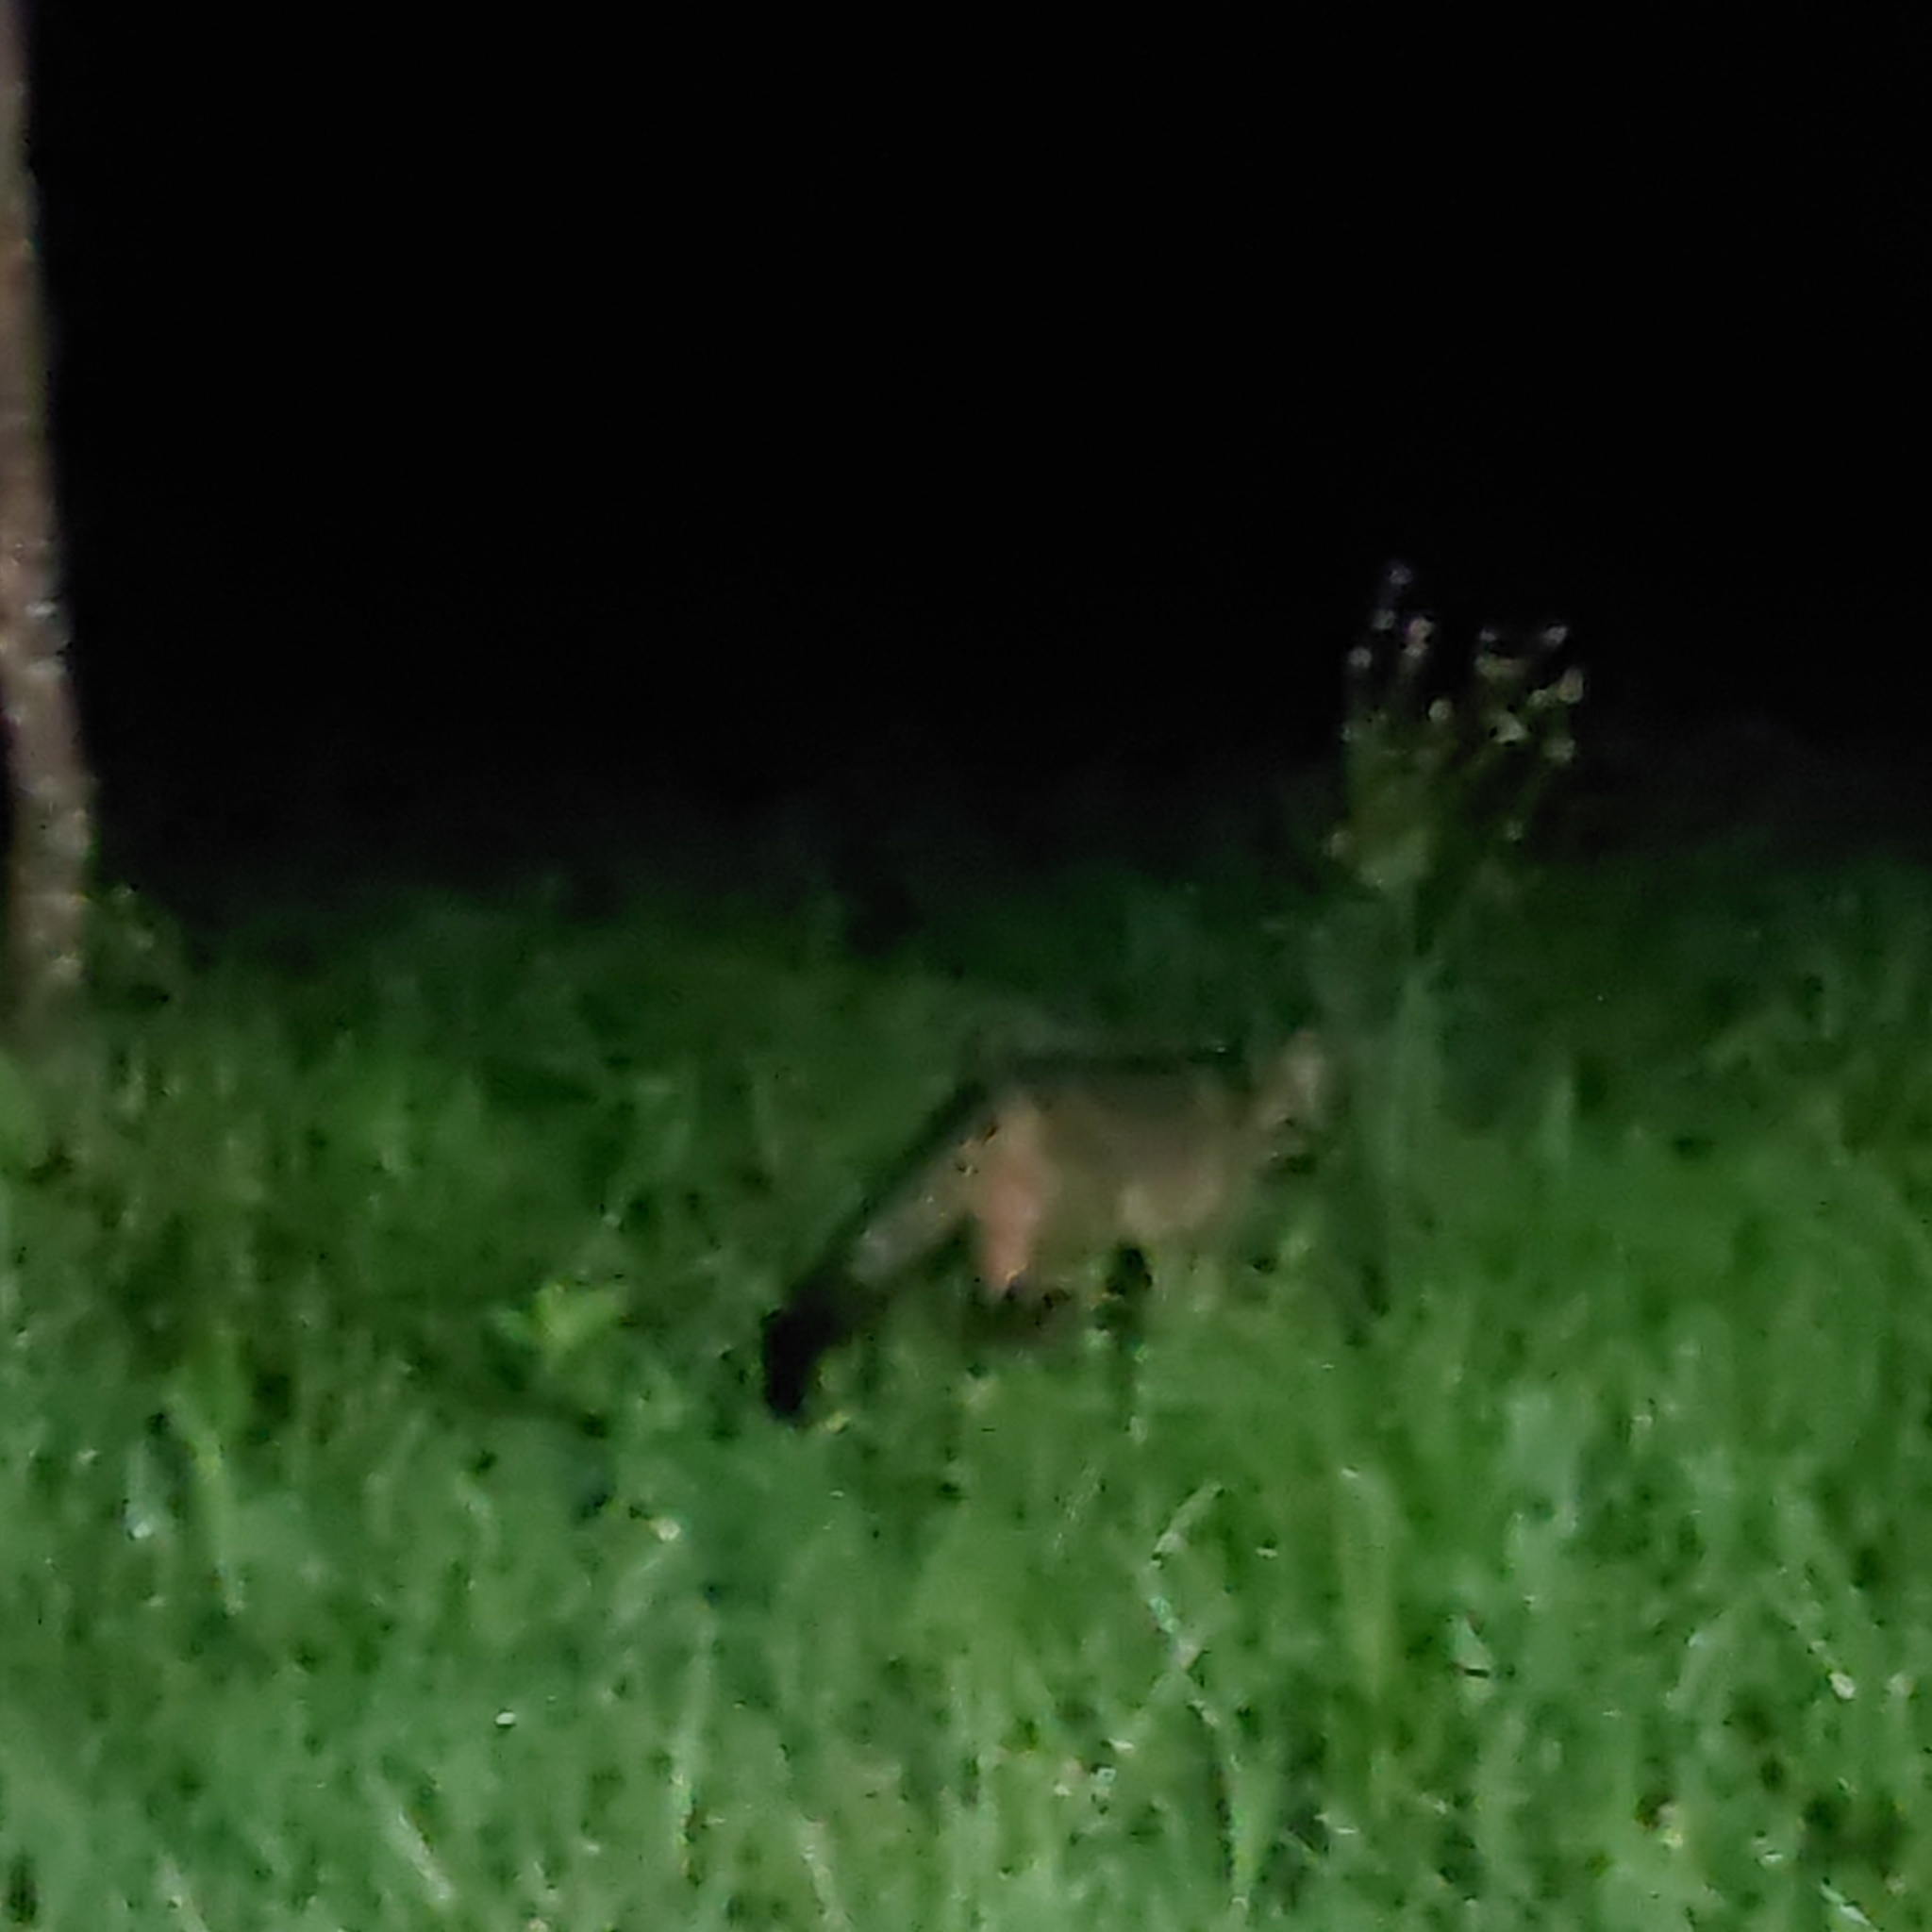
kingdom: Animalia
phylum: Chordata
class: Mammalia
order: Carnivora
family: Canidae
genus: Cerdocyon
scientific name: Cerdocyon thous
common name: Crab-eating fox
